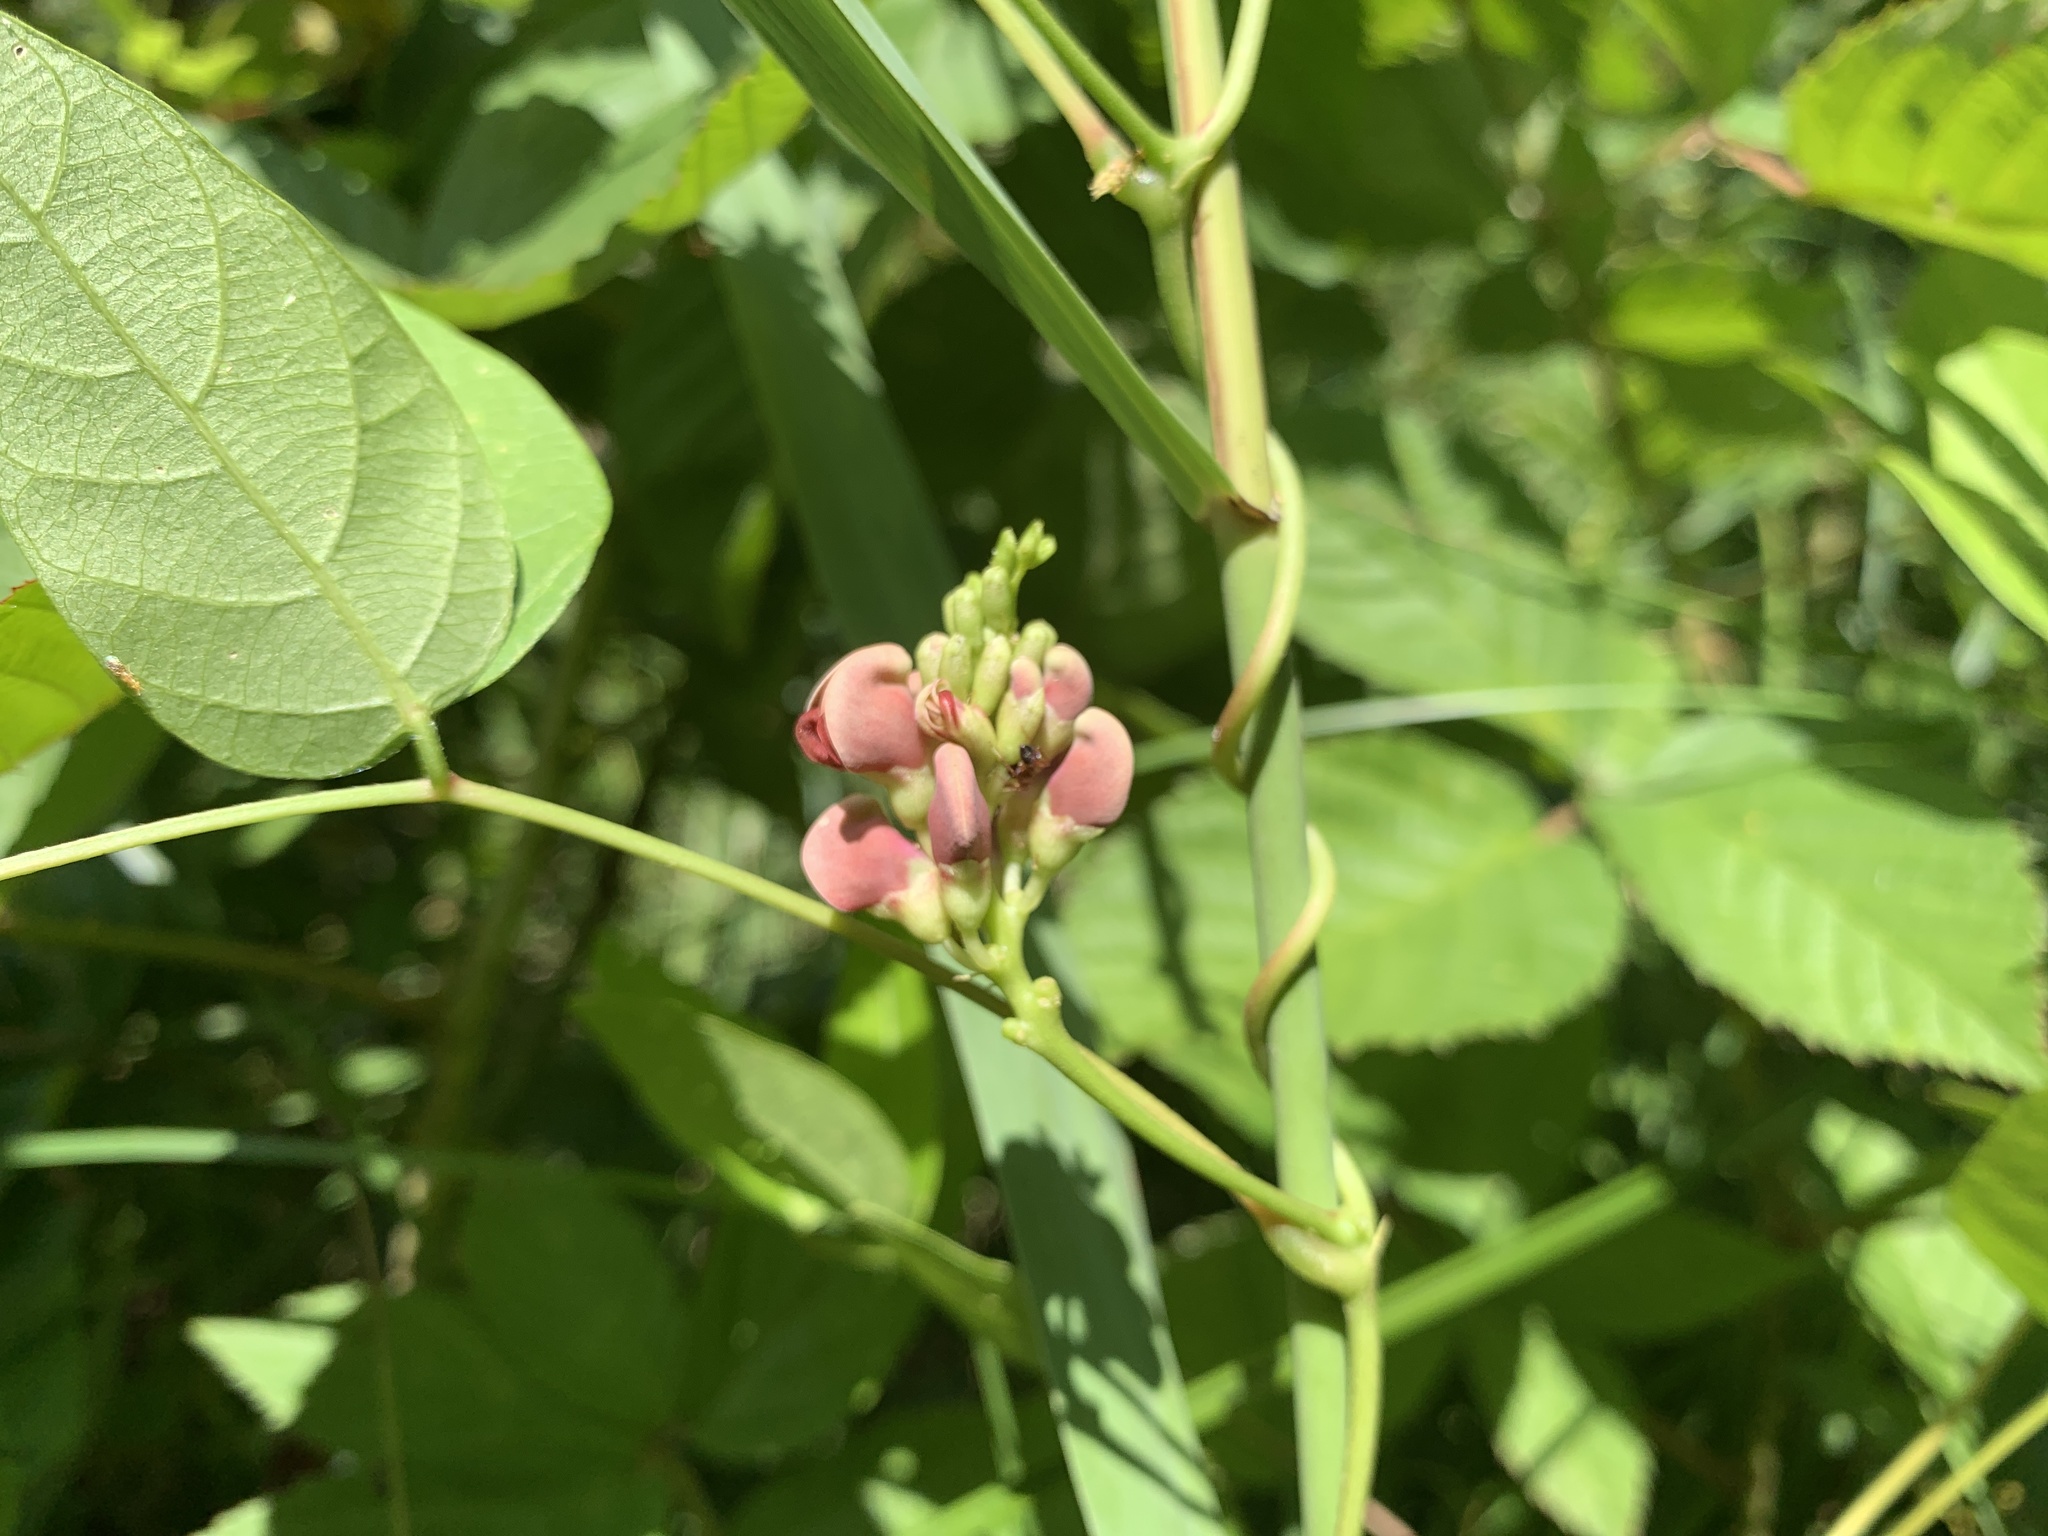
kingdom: Plantae
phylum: Tracheophyta
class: Magnoliopsida
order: Fabales
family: Fabaceae
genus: Apios
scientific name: Apios americana
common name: American potato-bean
